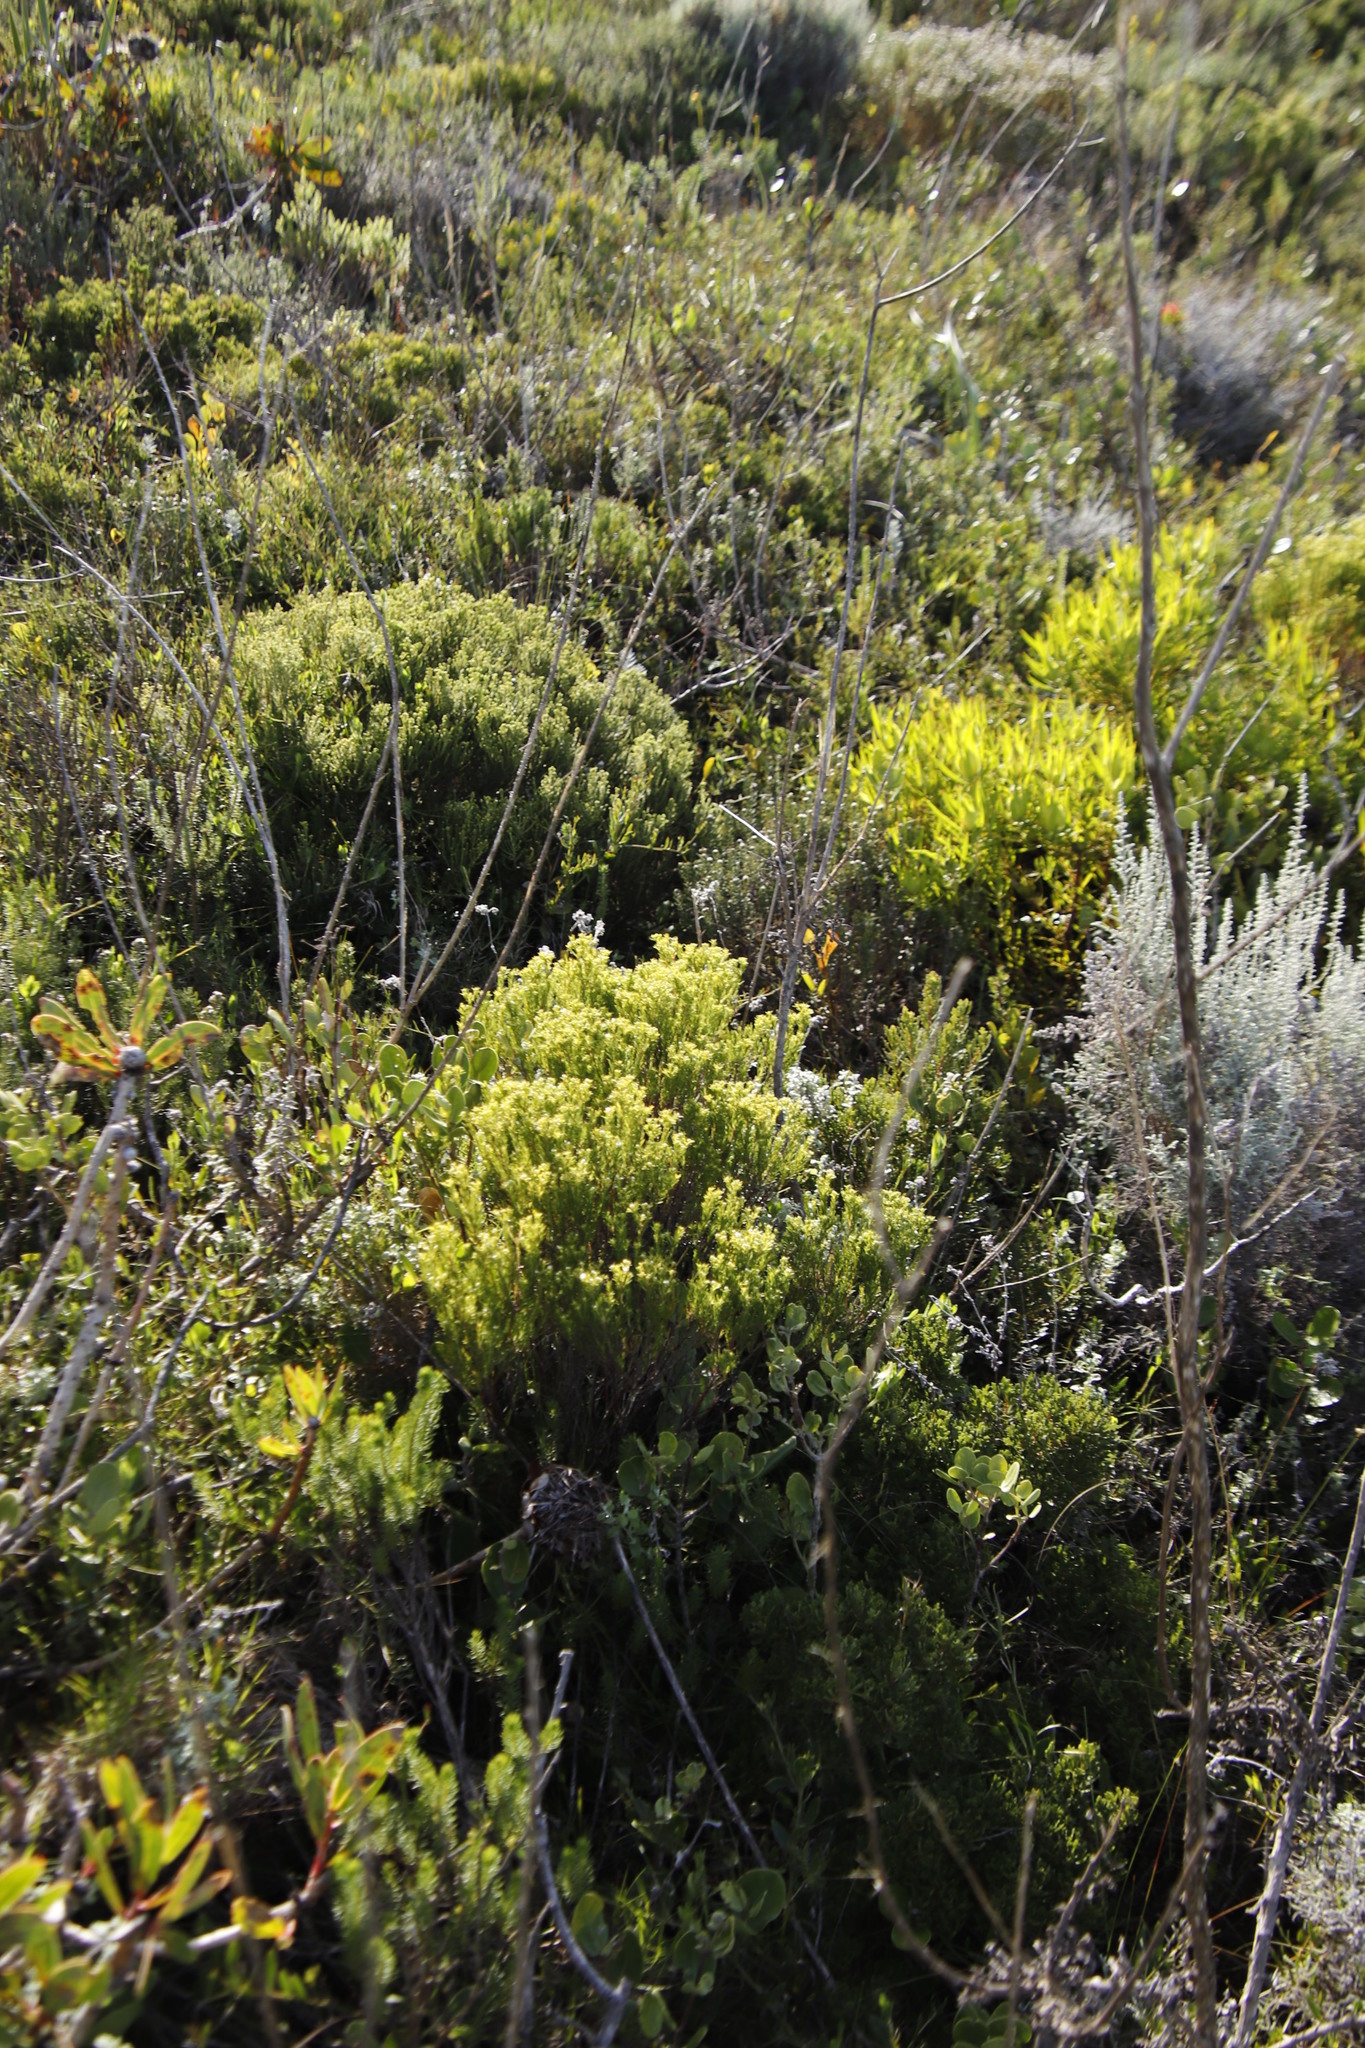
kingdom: Plantae
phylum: Tracheophyta
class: Magnoliopsida
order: Sapindales
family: Rutaceae
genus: Diosma
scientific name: Diosma hirsuta
